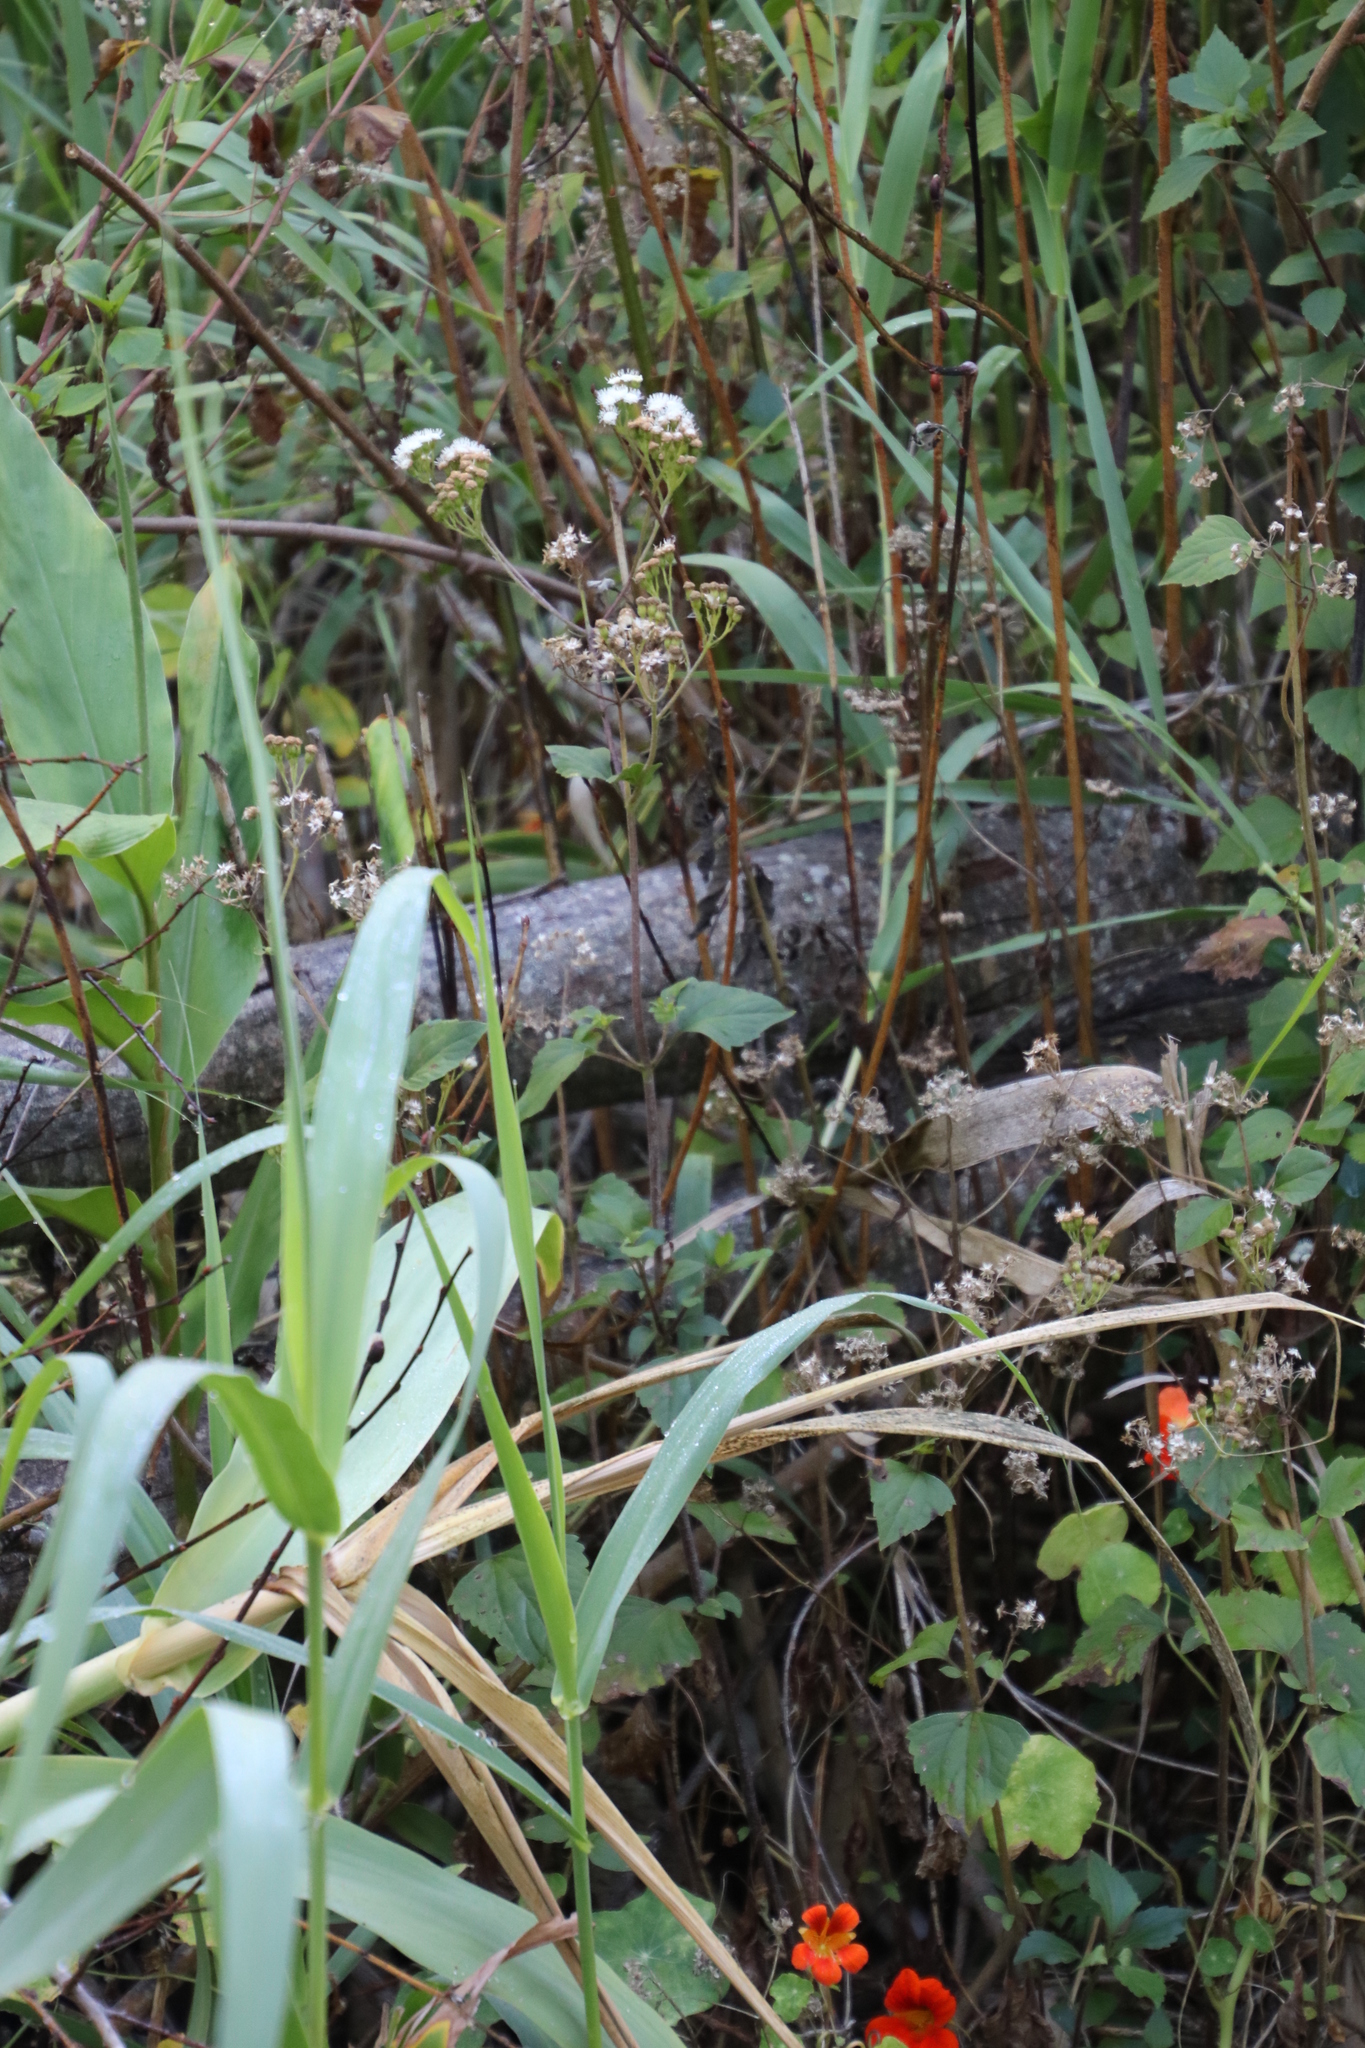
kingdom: Plantae
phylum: Tracheophyta
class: Magnoliopsida
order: Asterales
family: Asteraceae
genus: Ageratina
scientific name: Ageratina adenophora
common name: Sticky snakeroot
